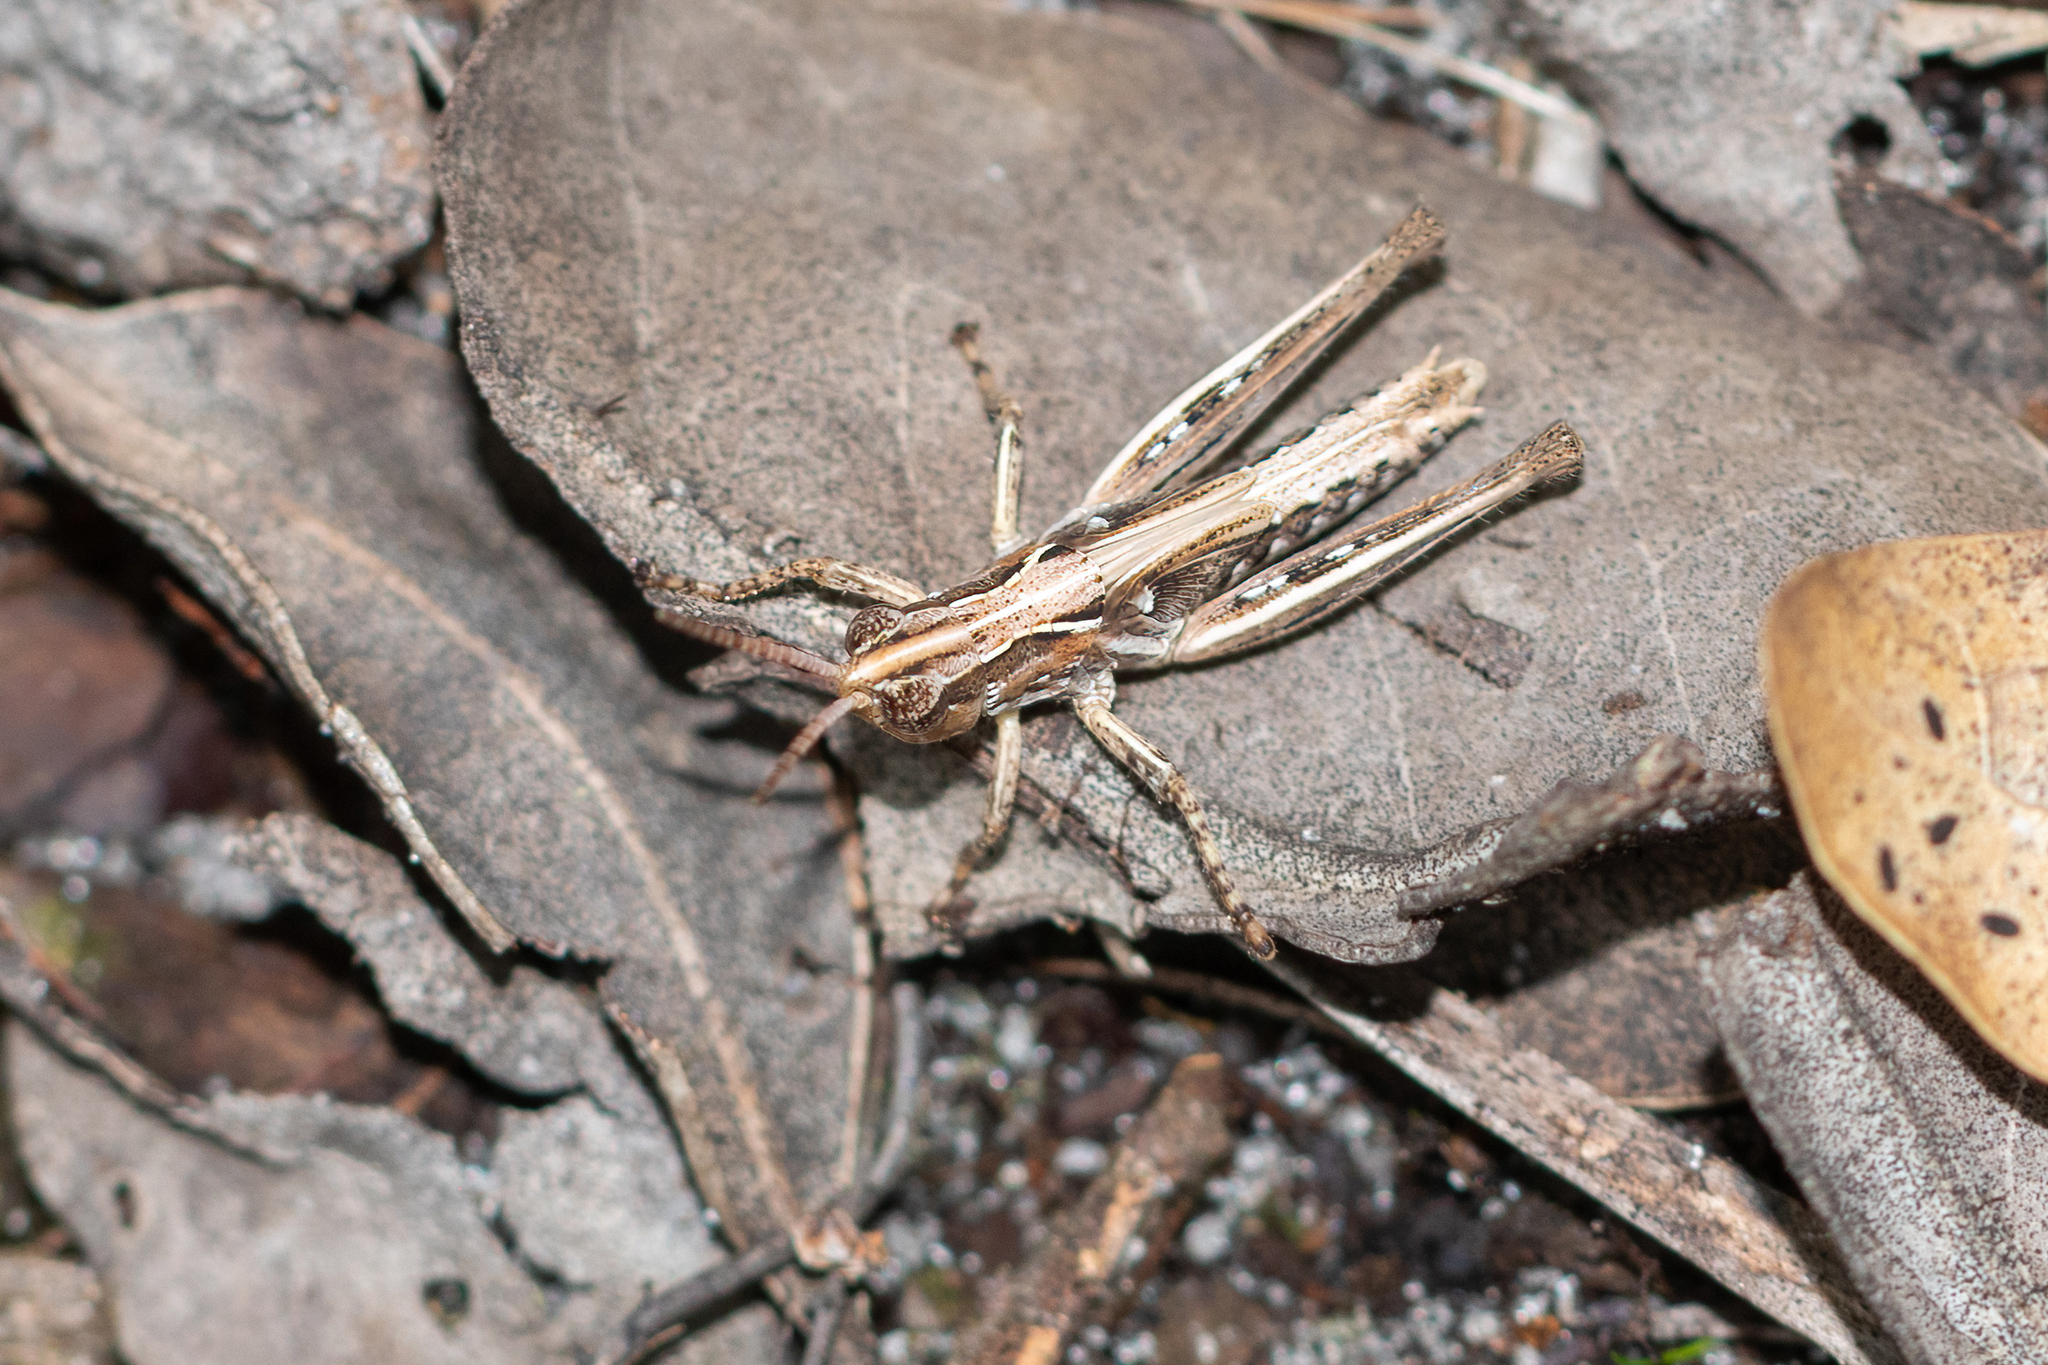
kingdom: Animalia
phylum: Arthropoda
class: Insecta
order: Orthoptera
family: Acrididae
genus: Orphulella
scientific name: Orphulella pelidna
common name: Spotted-wing grasshopper
